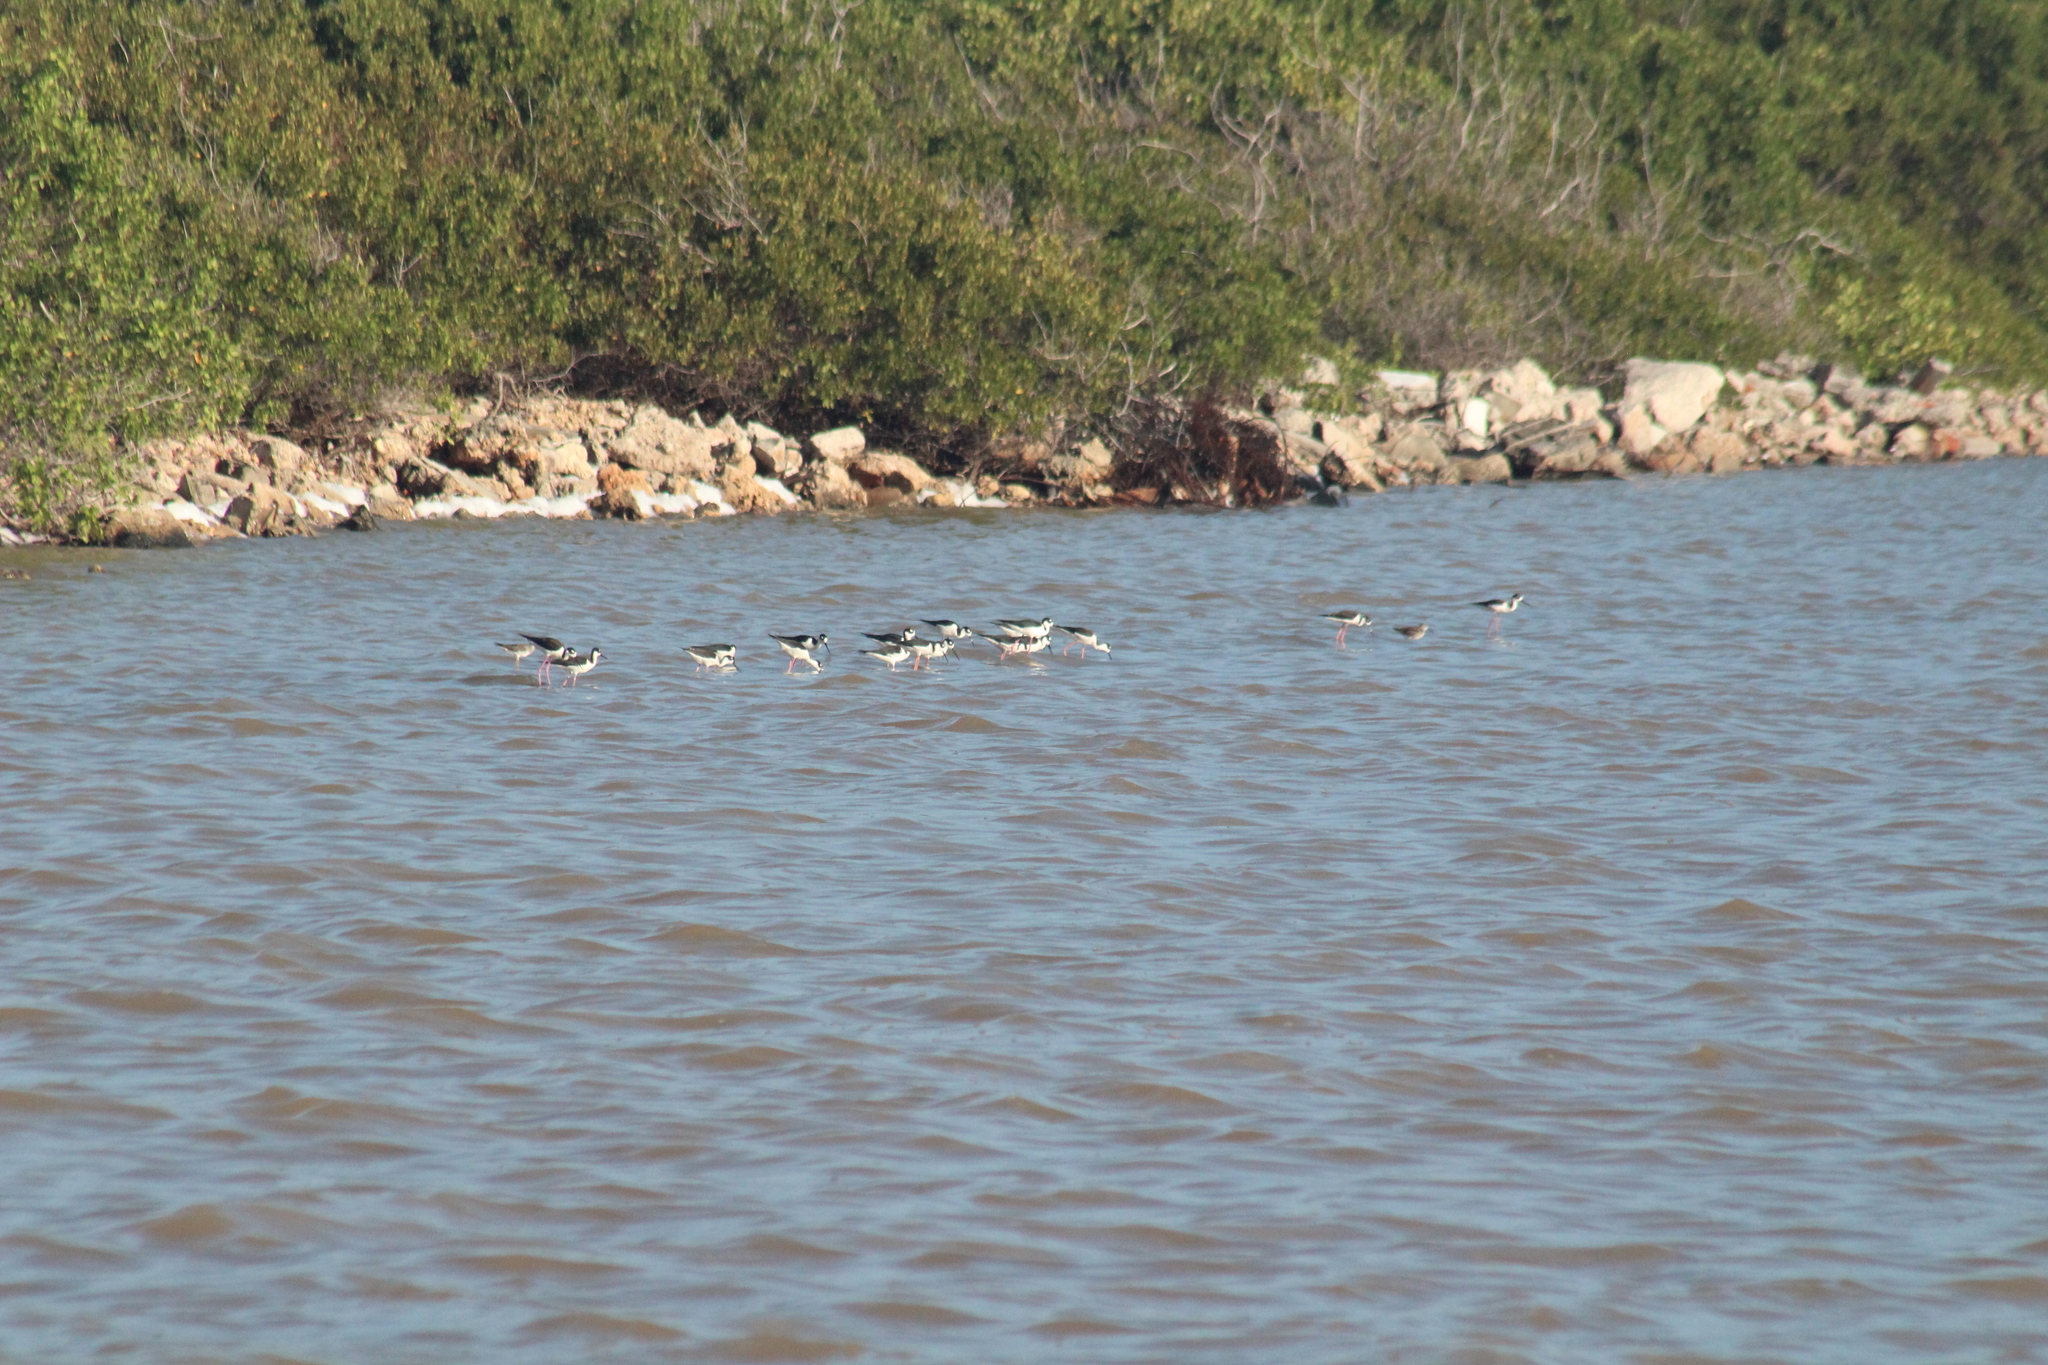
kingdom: Animalia
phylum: Chordata
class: Aves
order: Charadriiformes
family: Recurvirostridae
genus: Himantopus
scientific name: Himantopus mexicanus
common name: Black-necked stilt
